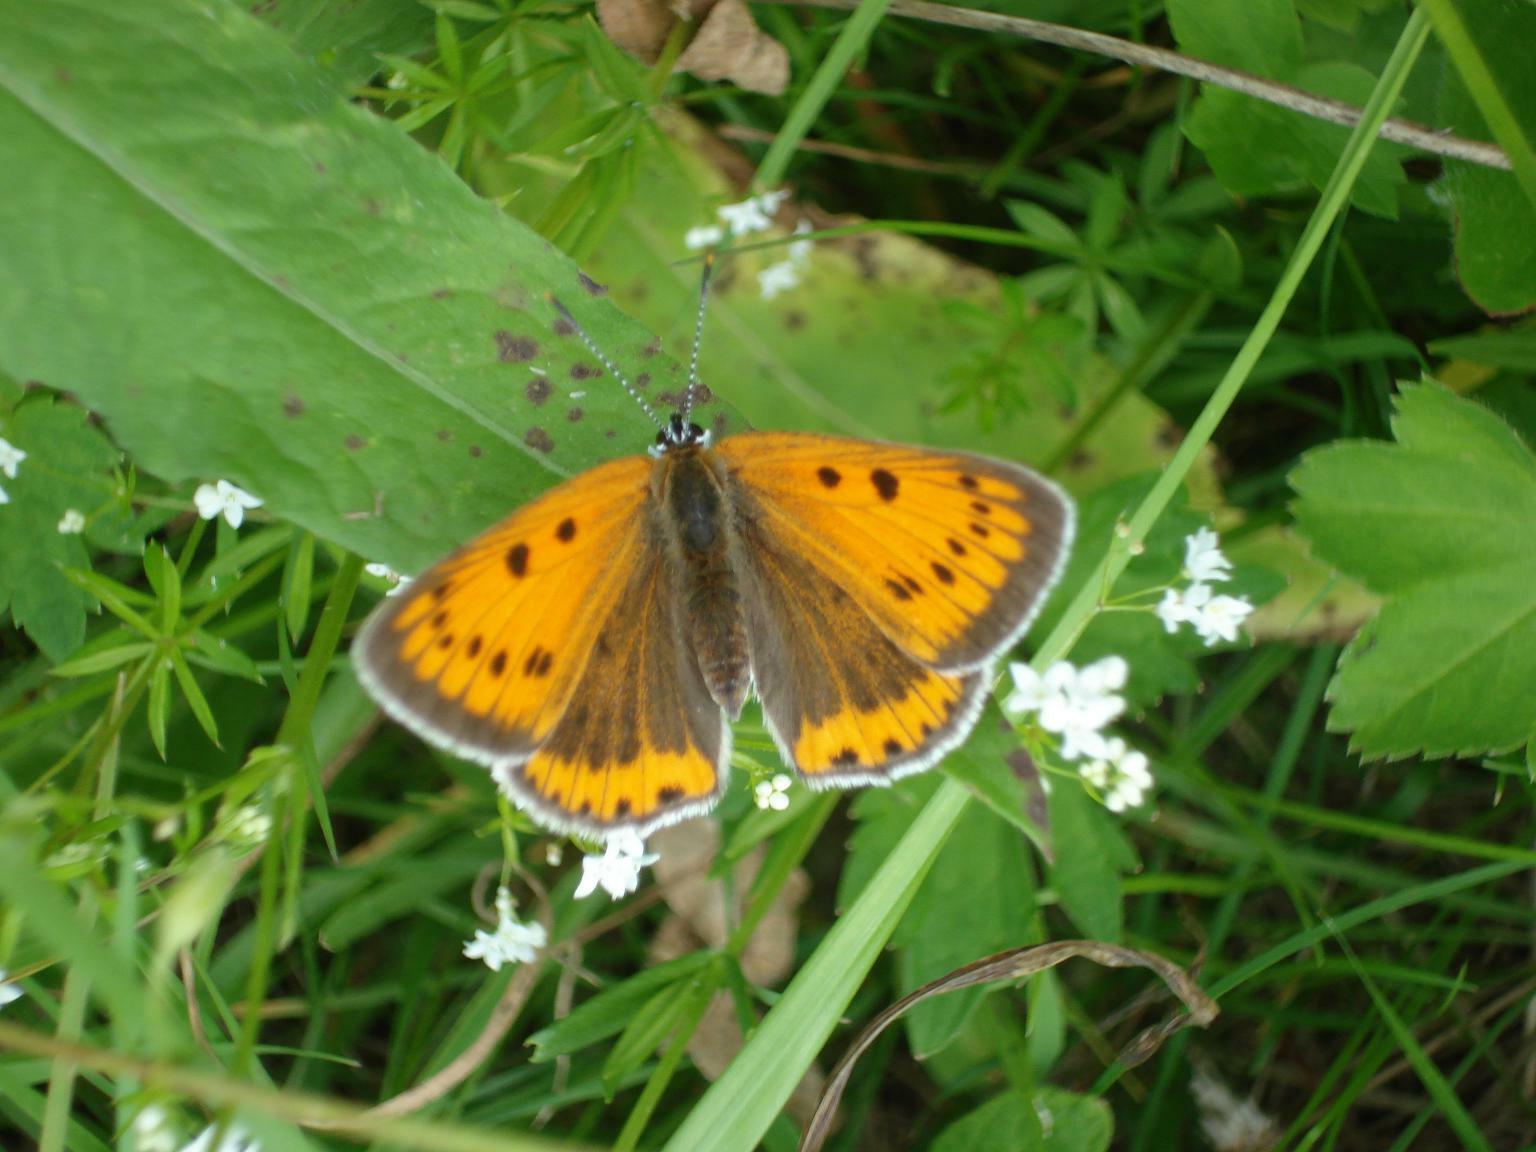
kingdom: Animalia
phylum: Arthropoda
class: Insecta
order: Lepidoptera
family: Lycaenidae
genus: Lycaena
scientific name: Lycaena dispar
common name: Large copper
